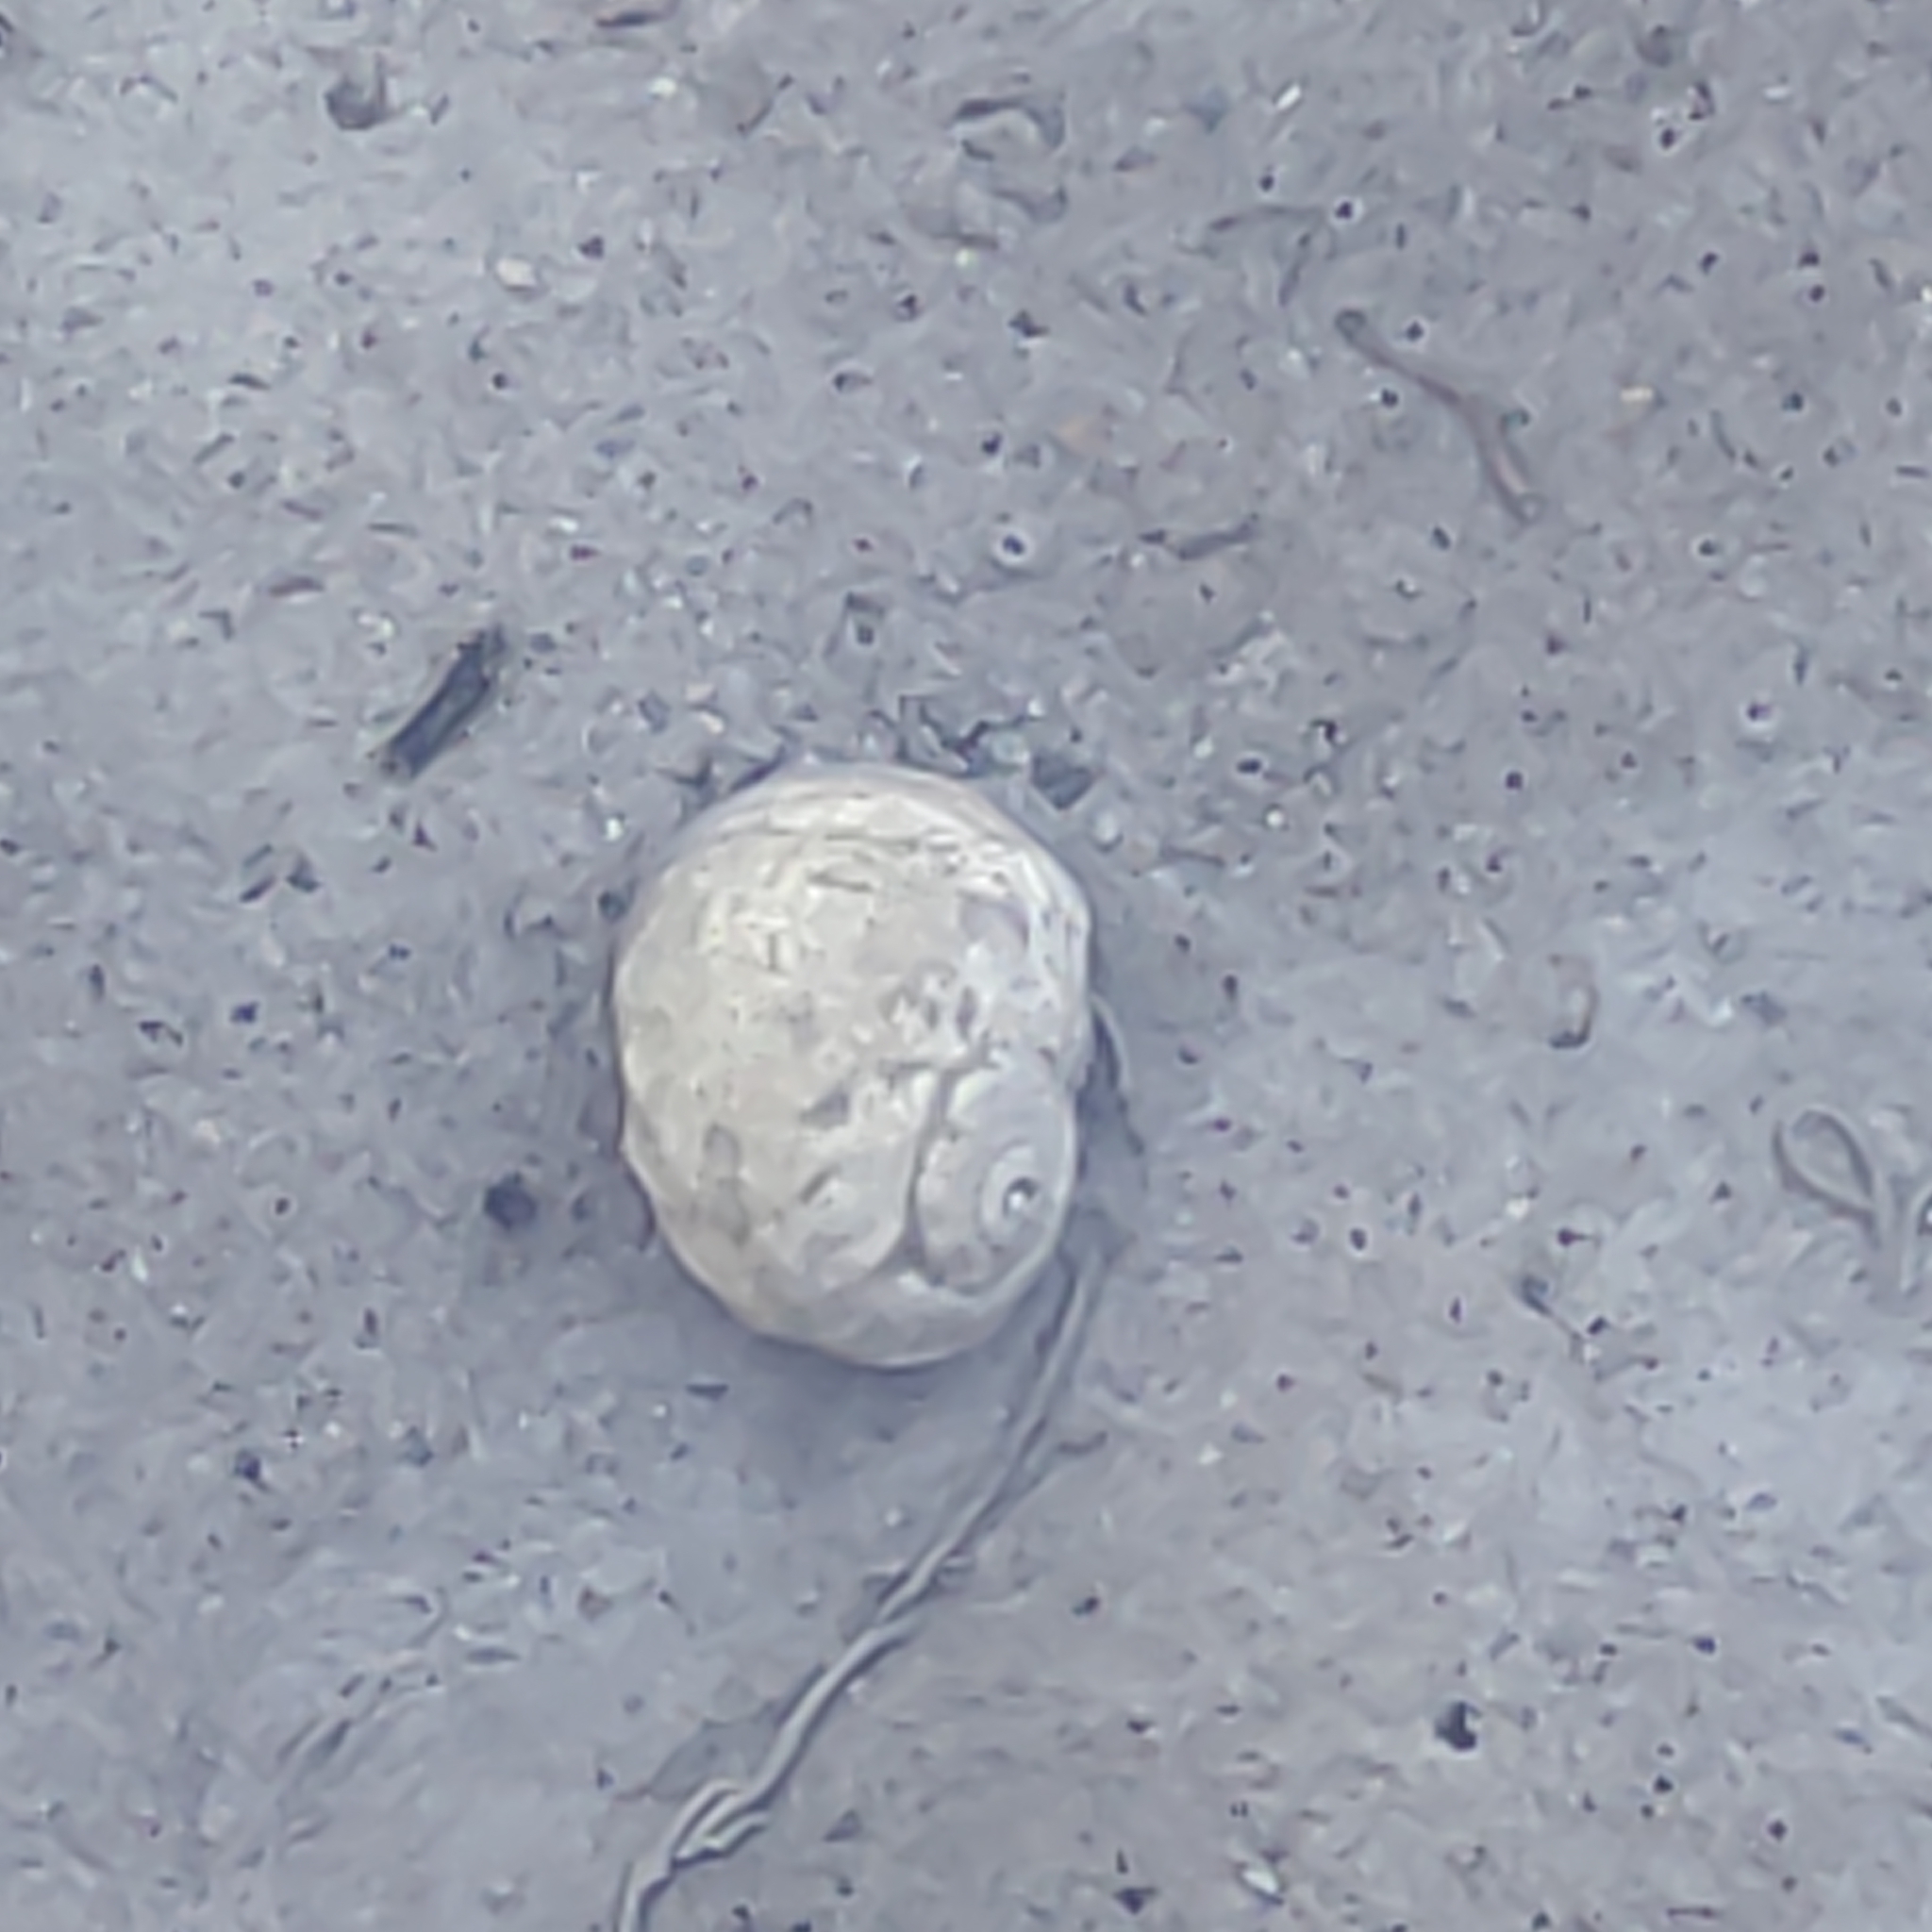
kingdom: Animalia
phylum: Mollusca
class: Gastropoda
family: Amphibolidae
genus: Amphibola
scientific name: Amphibola crenata
